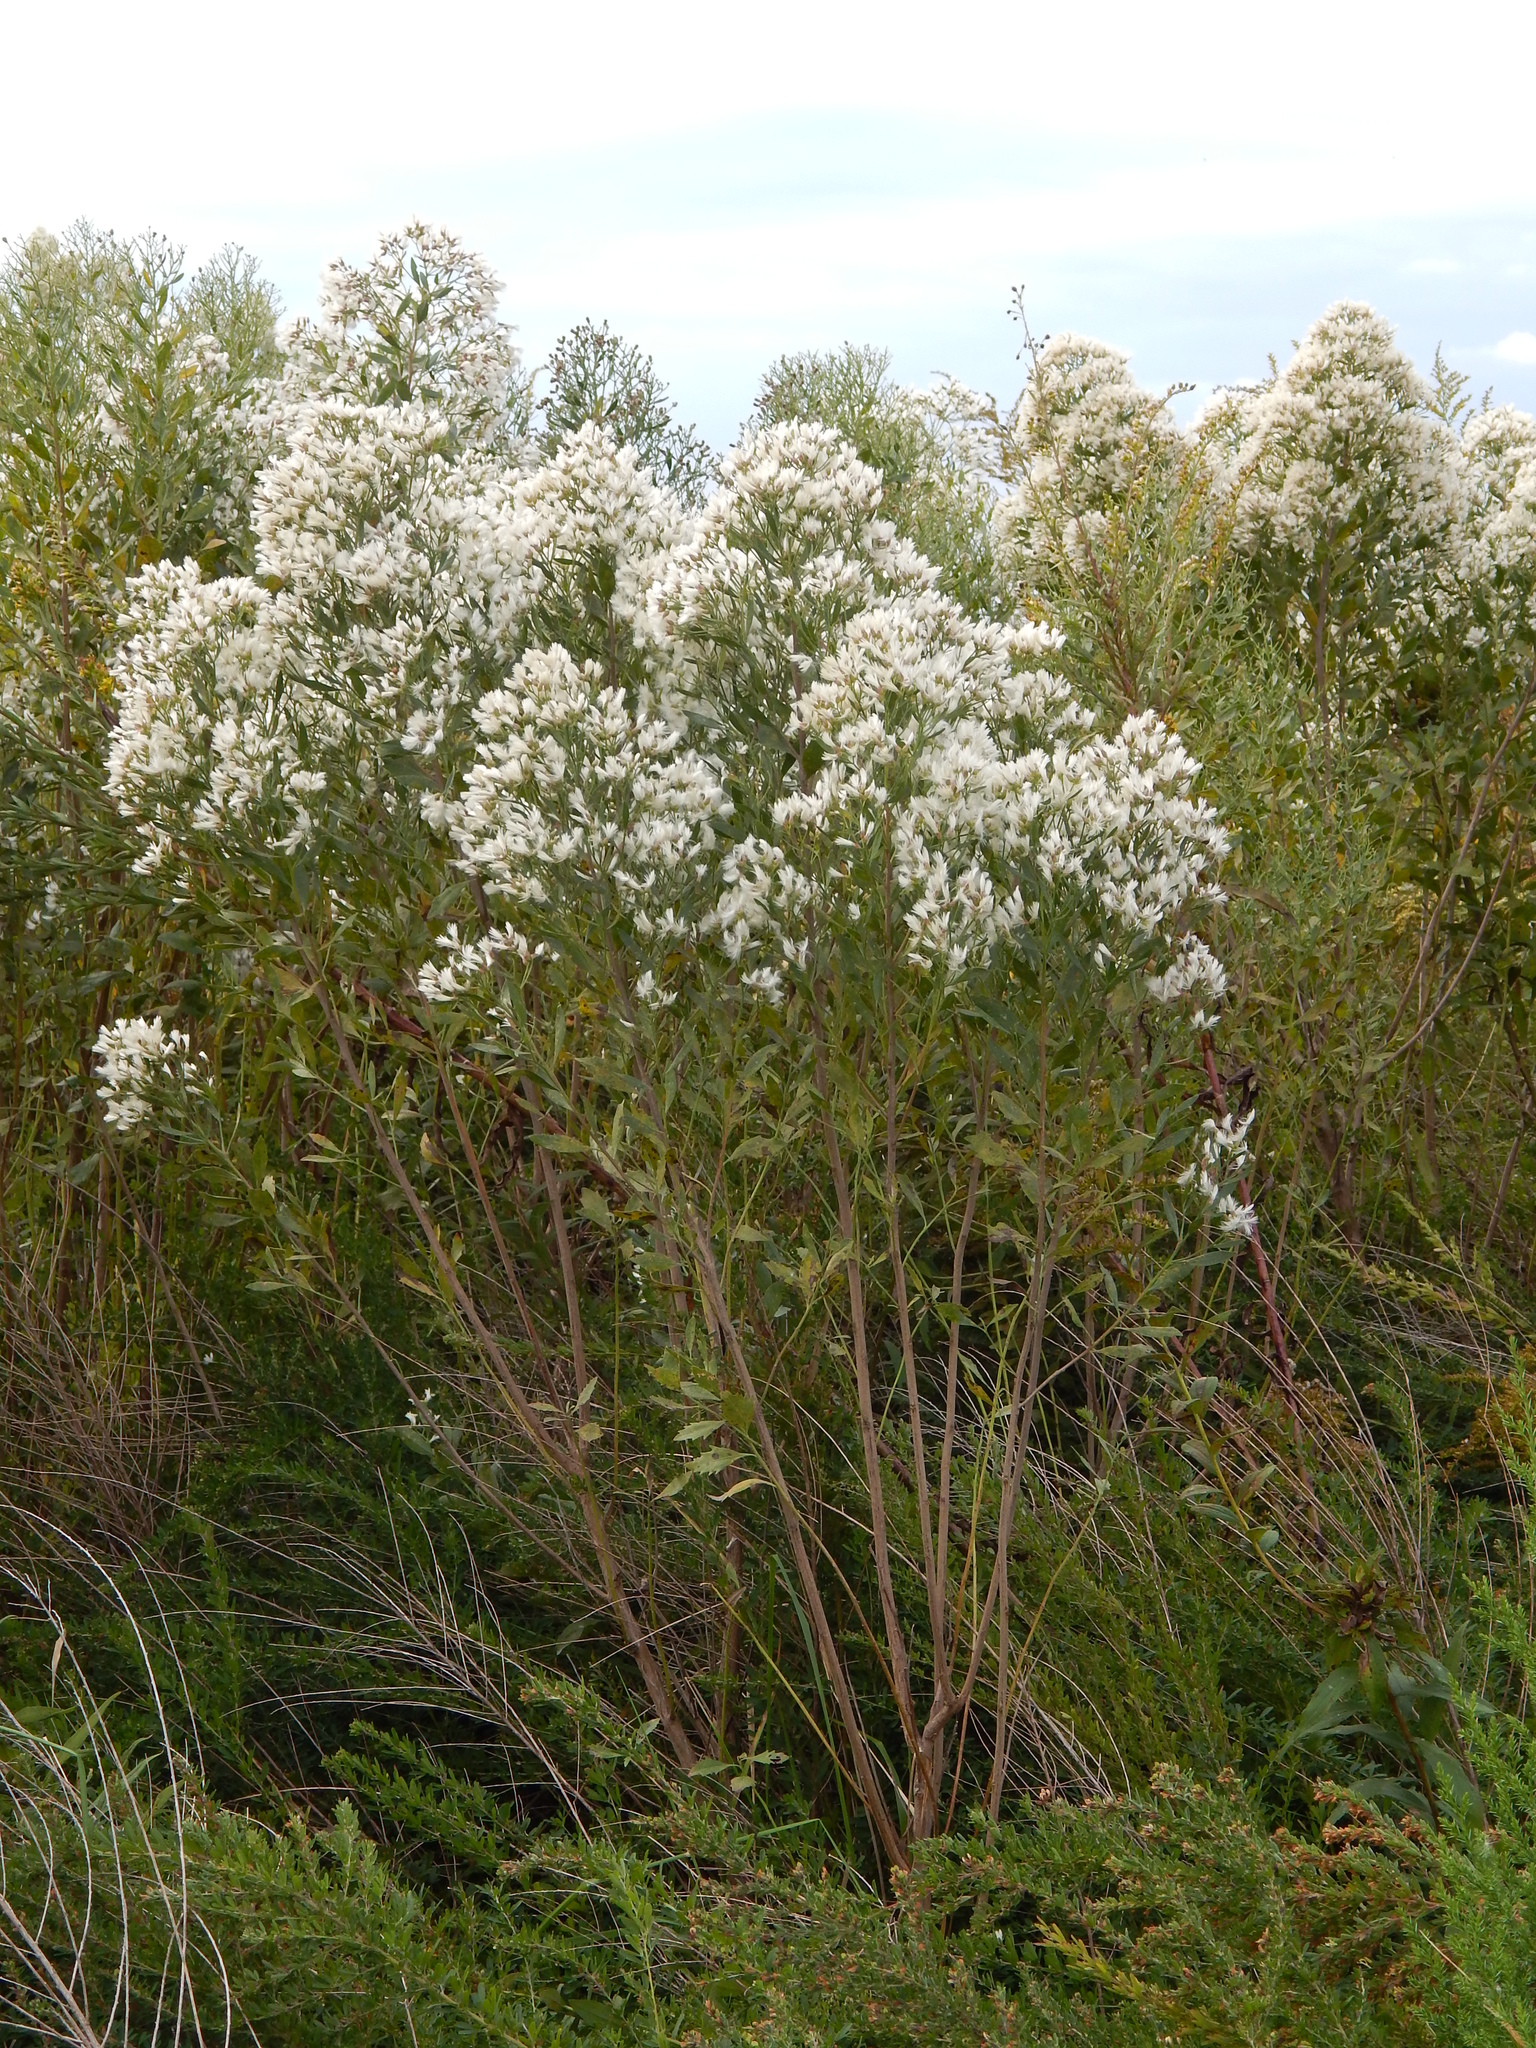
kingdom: Plantae
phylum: Tracheophyta
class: Magnoliopsida
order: Asterales
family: Asteraceae
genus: Baccharis
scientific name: Baccharis halimifolia
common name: Eastern baccharis
